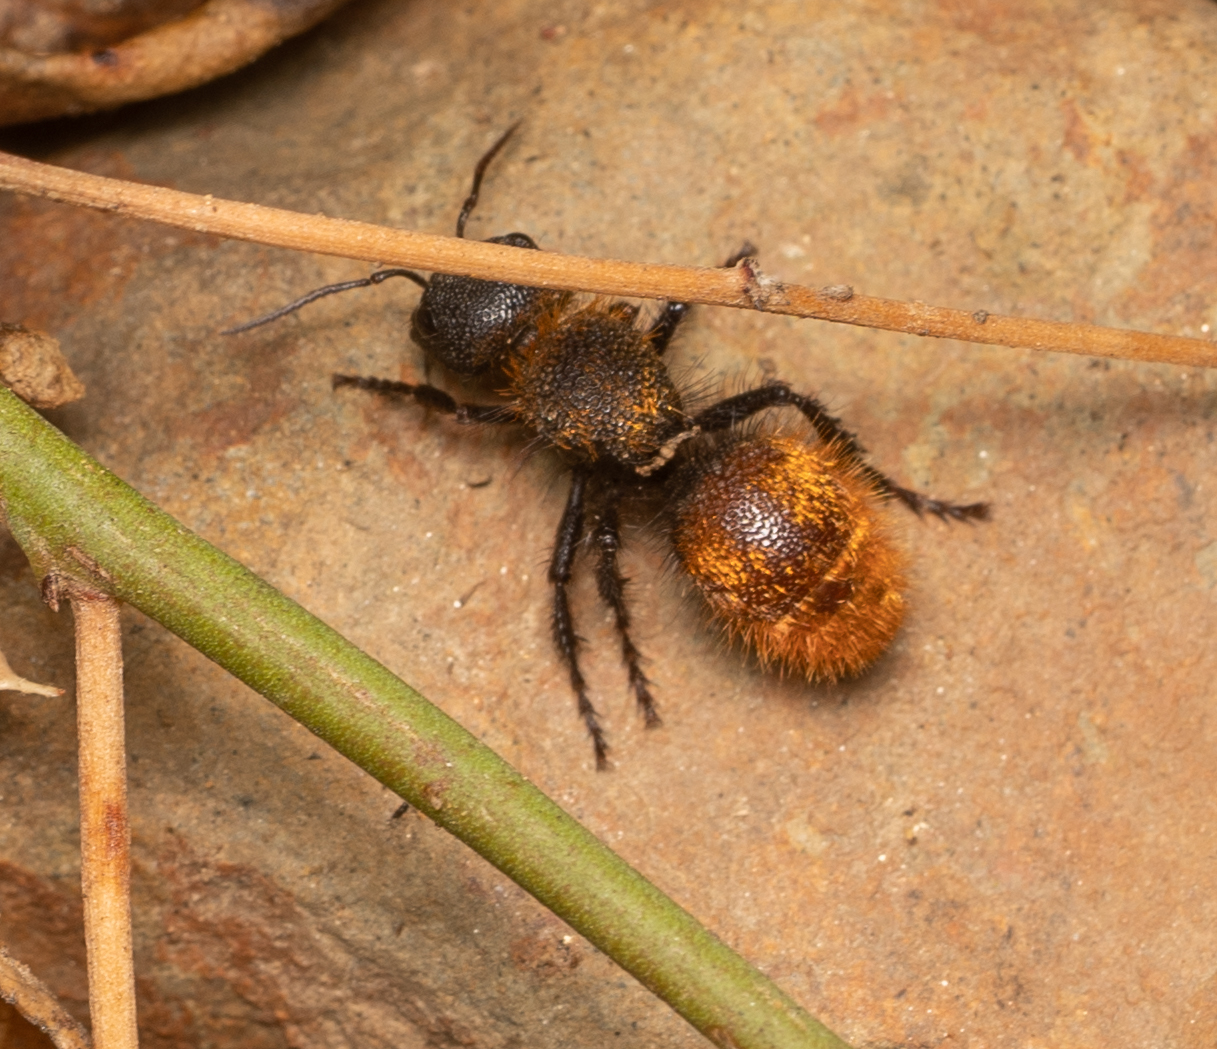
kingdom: Animalia
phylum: Arthropoda
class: Insecta
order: Hymenoptera
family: Mutillidae
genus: Dasymutilla
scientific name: Dasymutilla
